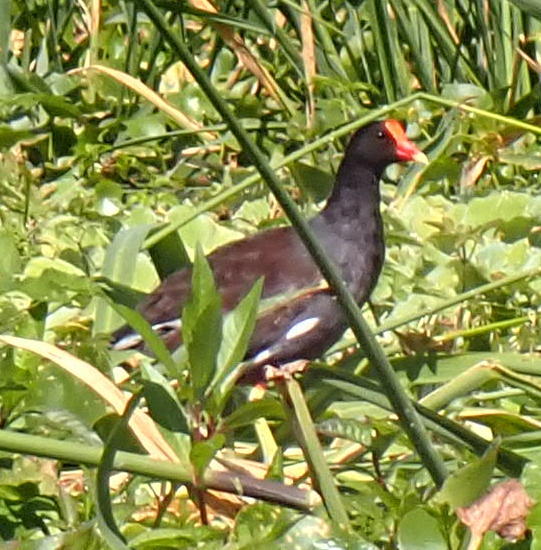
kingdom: Animalia
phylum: Chordata
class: Aves
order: Gruiformes
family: Rallidae
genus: Gallinula
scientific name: Gallinula chloropus
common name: Common moorhen
